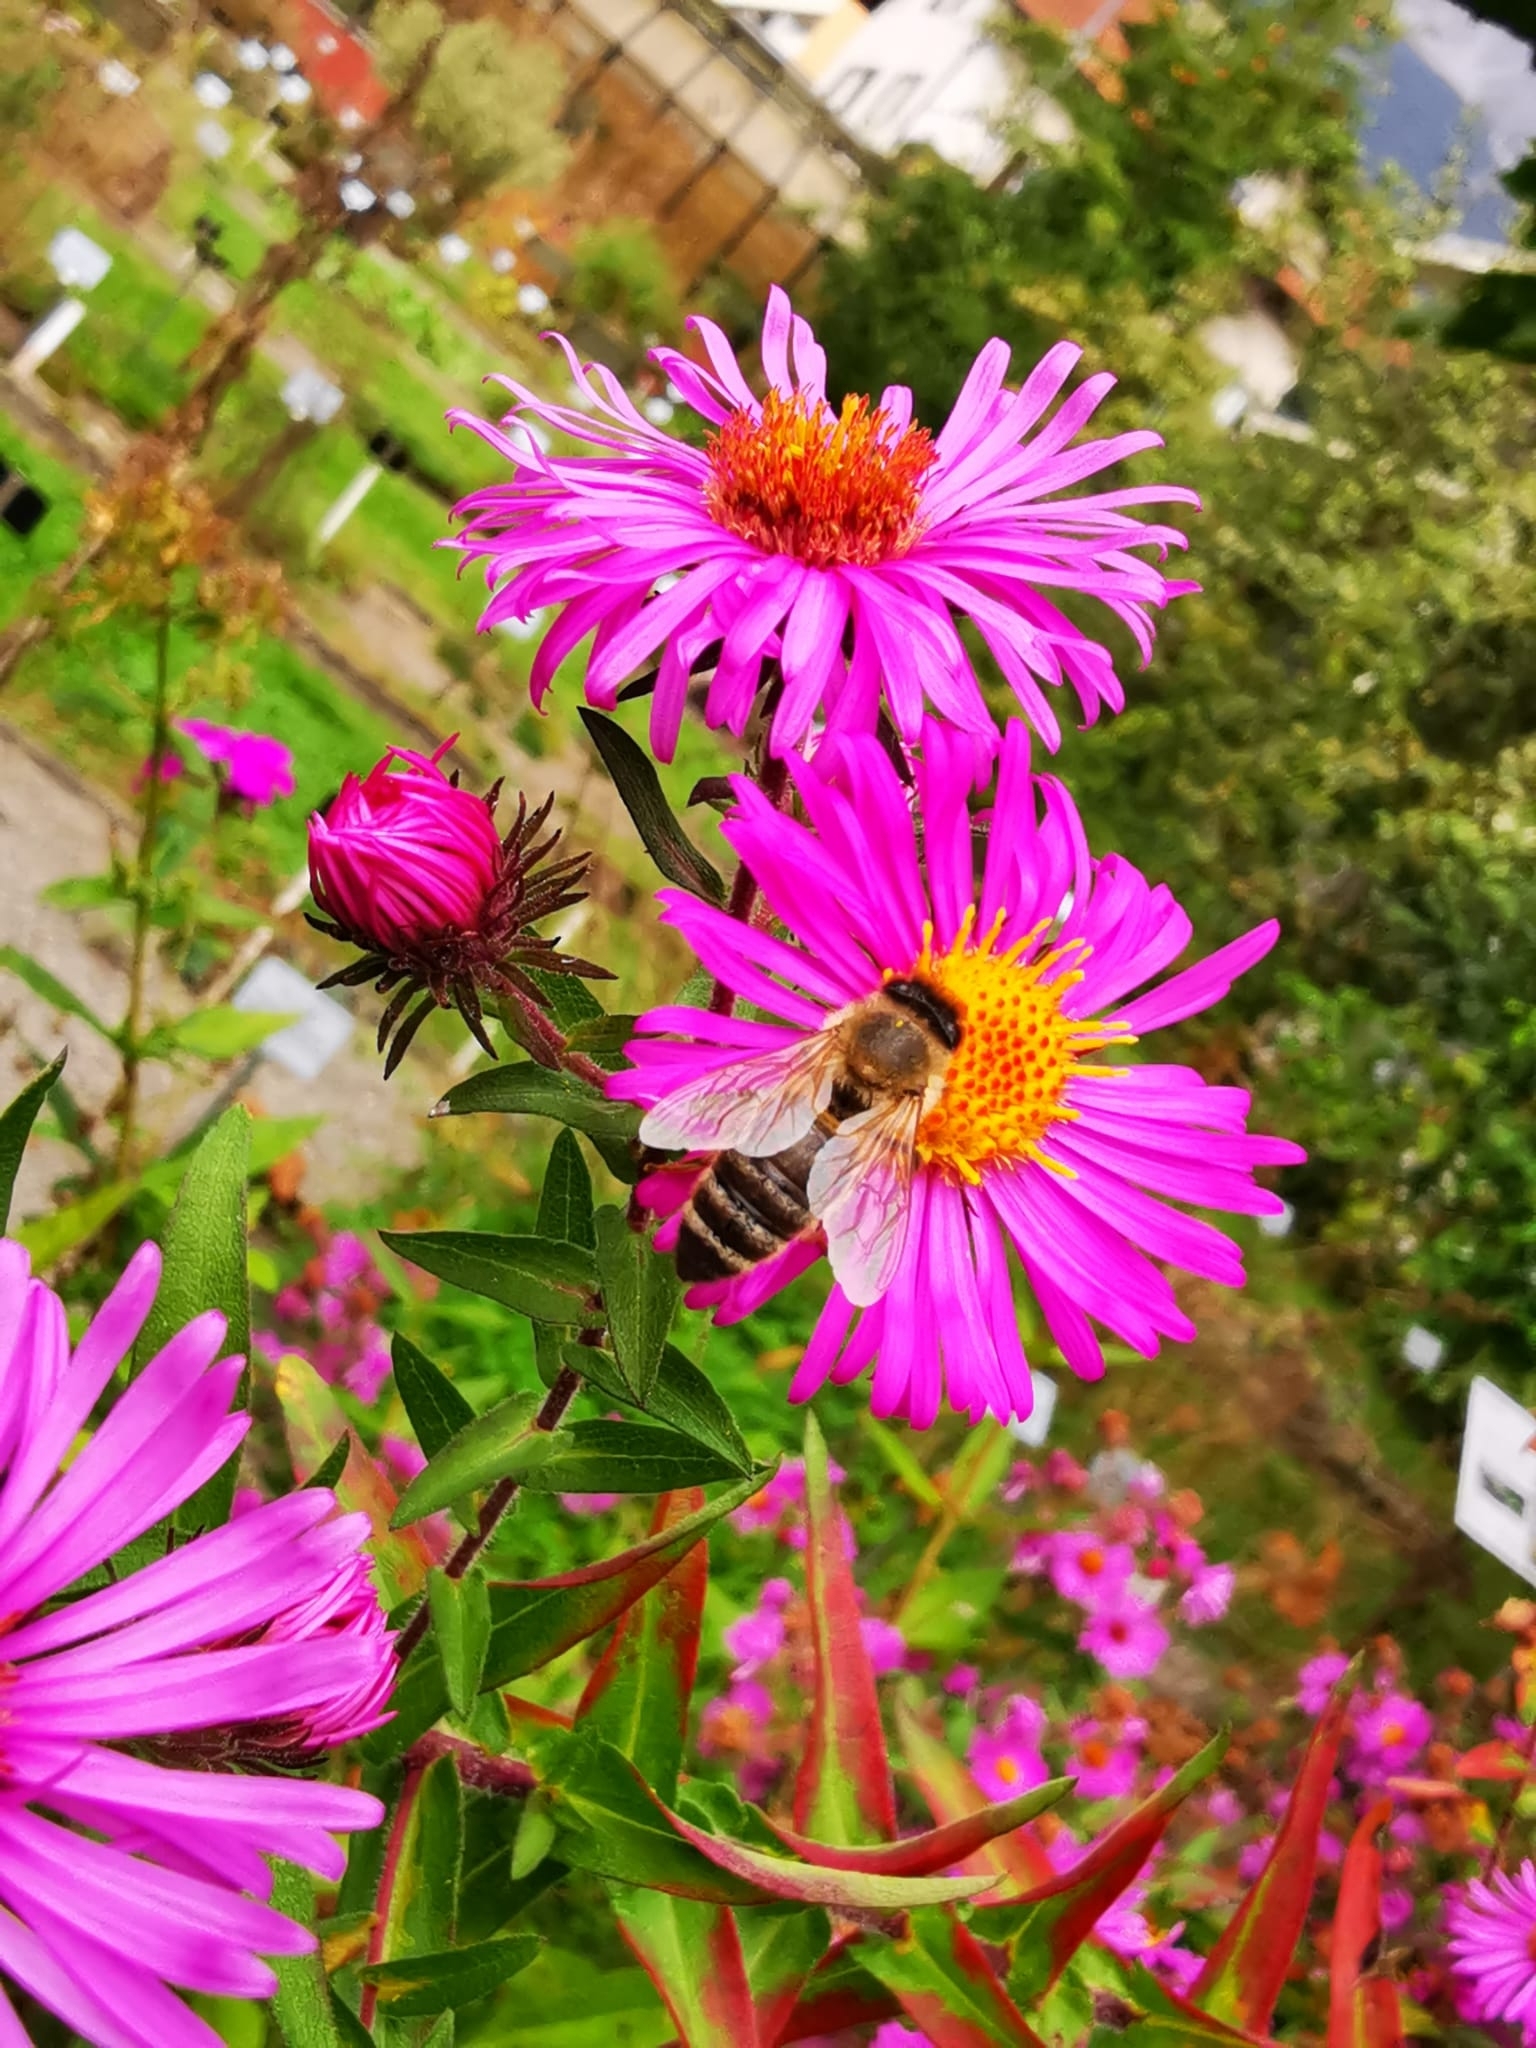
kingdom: Animalia
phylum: Arthropoda
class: Insecta
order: Hymenoptera
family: Apidae
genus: Apis
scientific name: Apis mellifera
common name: Honey bee
